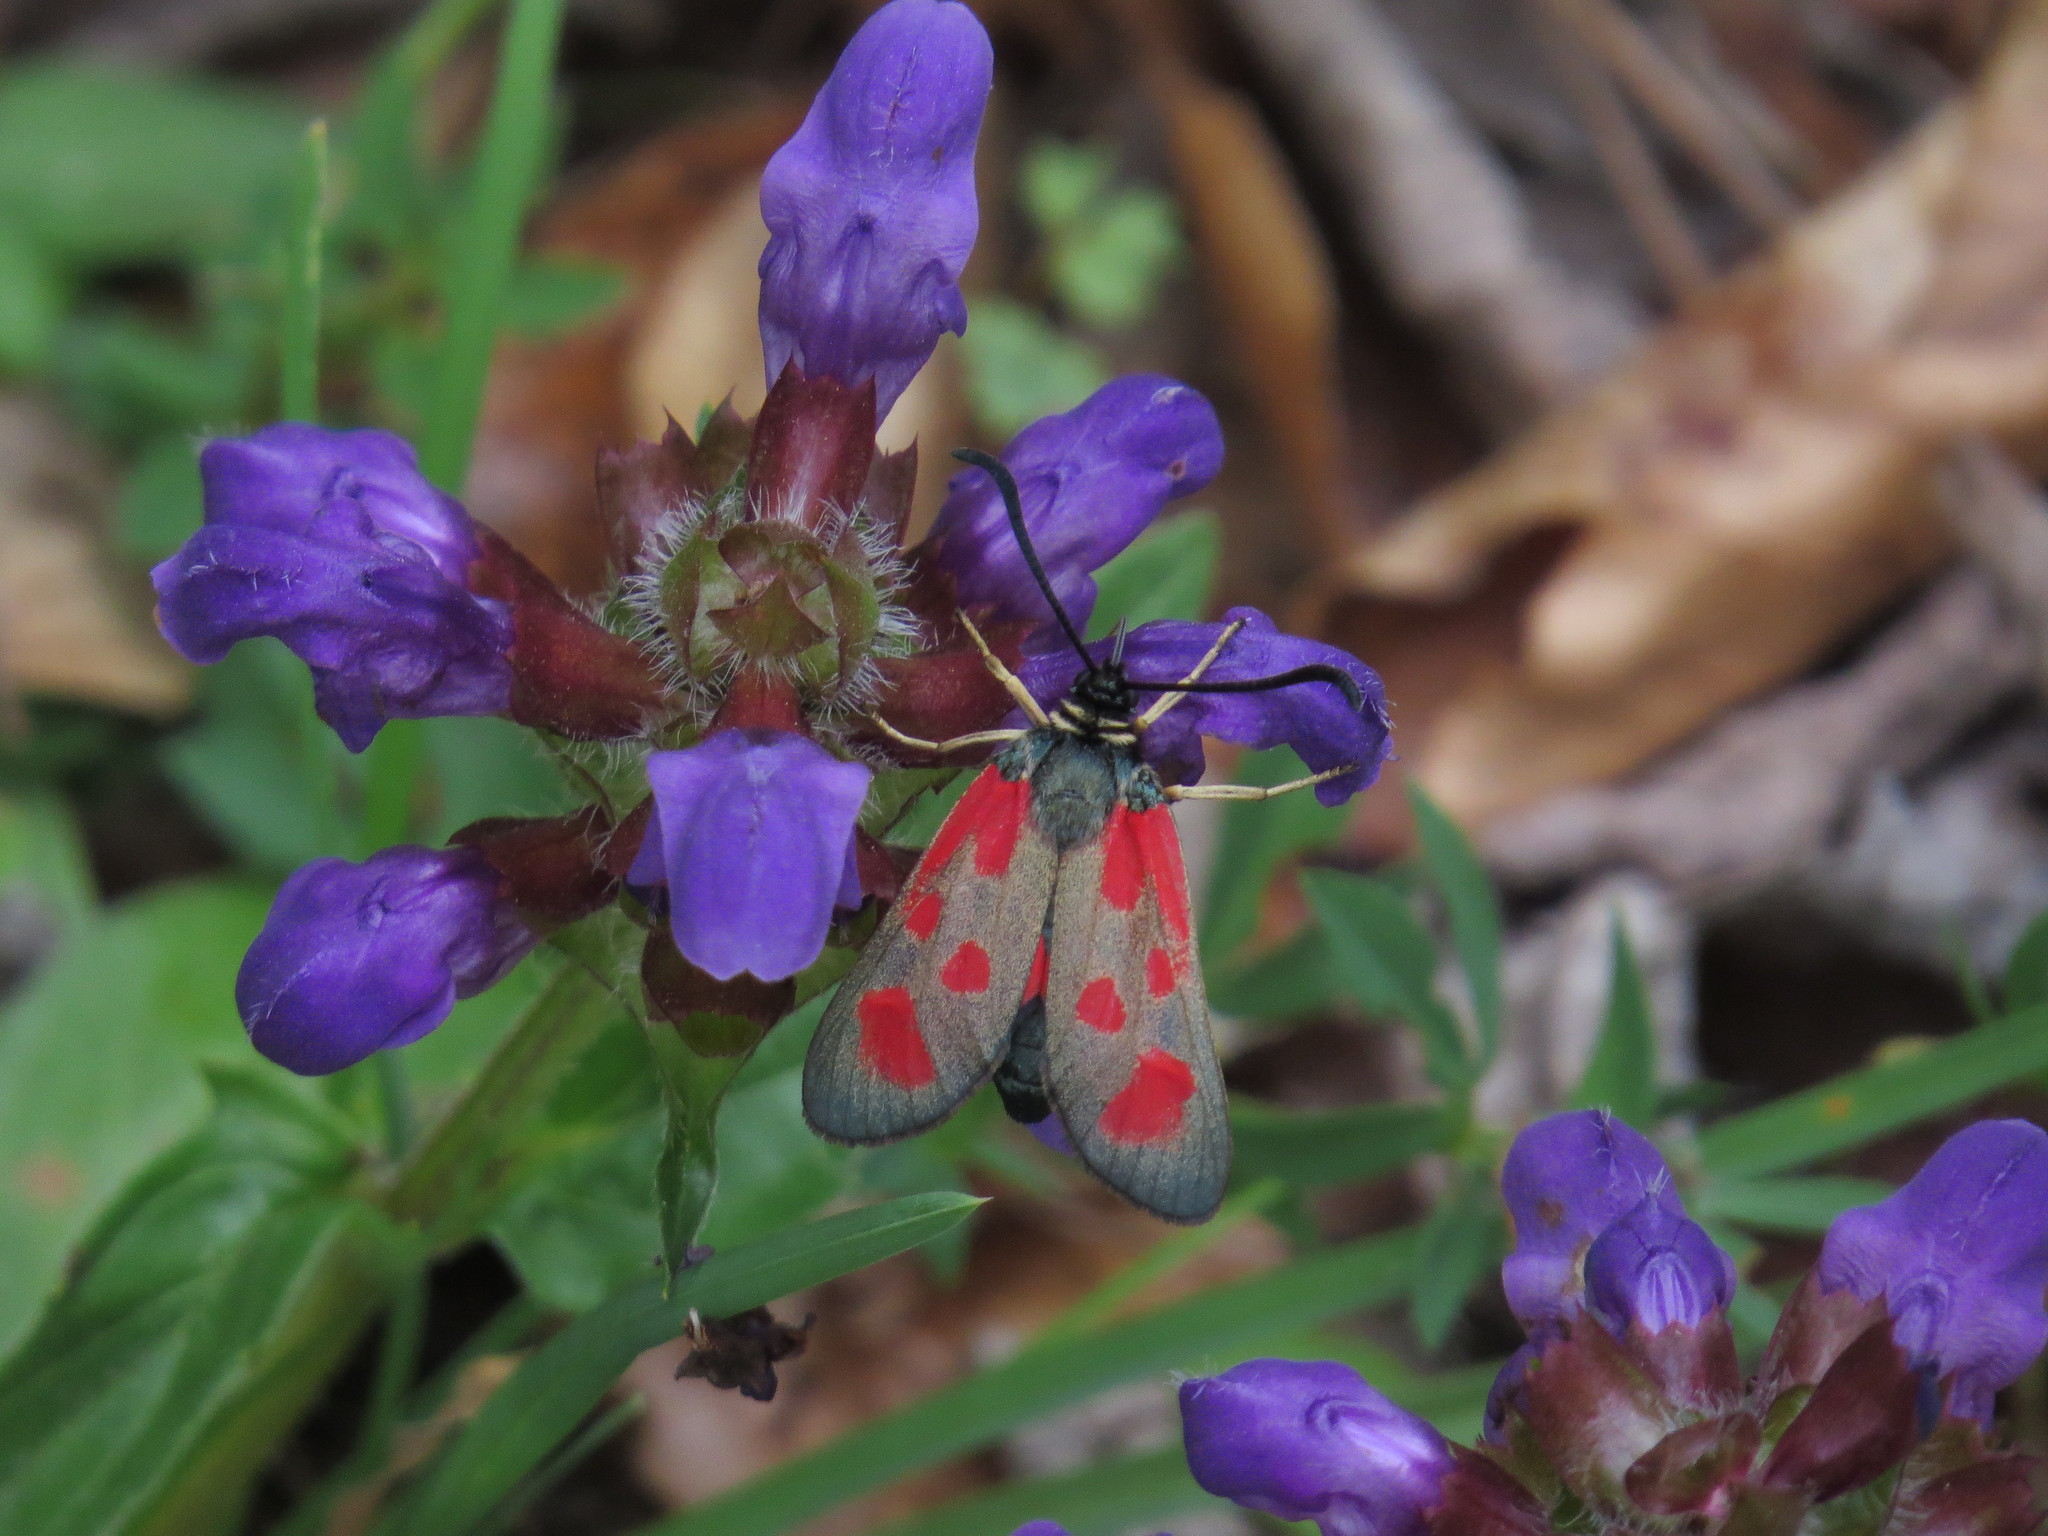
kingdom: Animalia
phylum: Arthropoda
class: Insecta
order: Lepidoptera
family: Zygaenidae
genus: Zygaena
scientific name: Zygaena loti
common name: Slender scotch burnet
